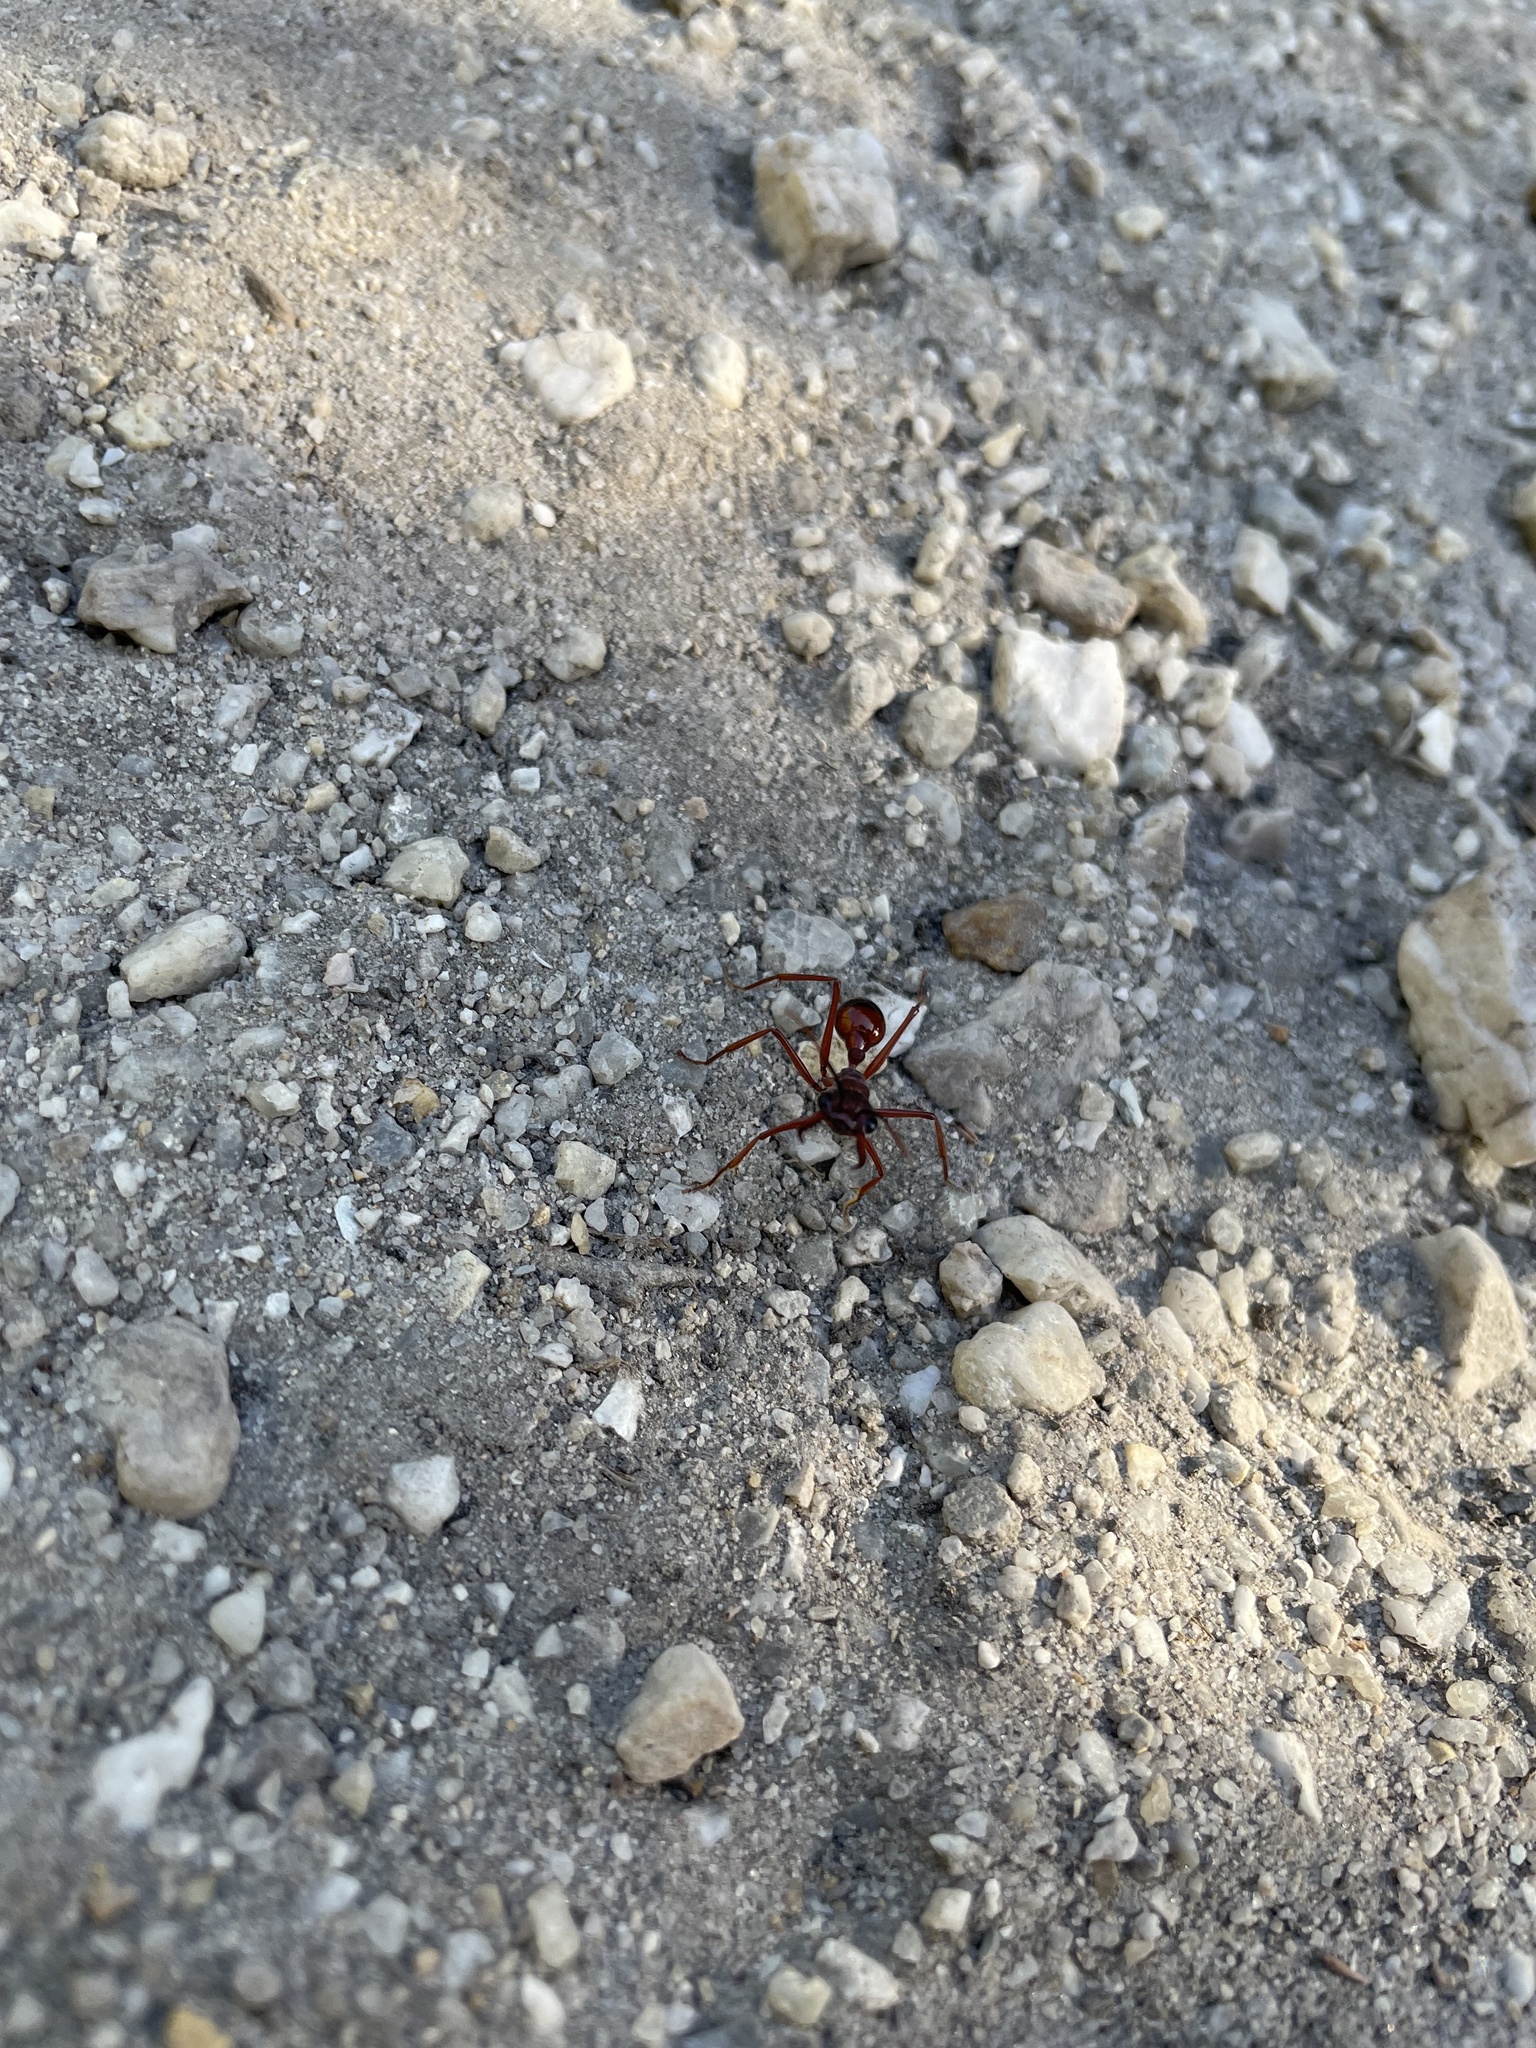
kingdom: Animalia
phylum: Arthropoda
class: Insecta
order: Hymenoptera
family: Formicidae
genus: Myrmecia
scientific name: Myrmecia nigriscapa
